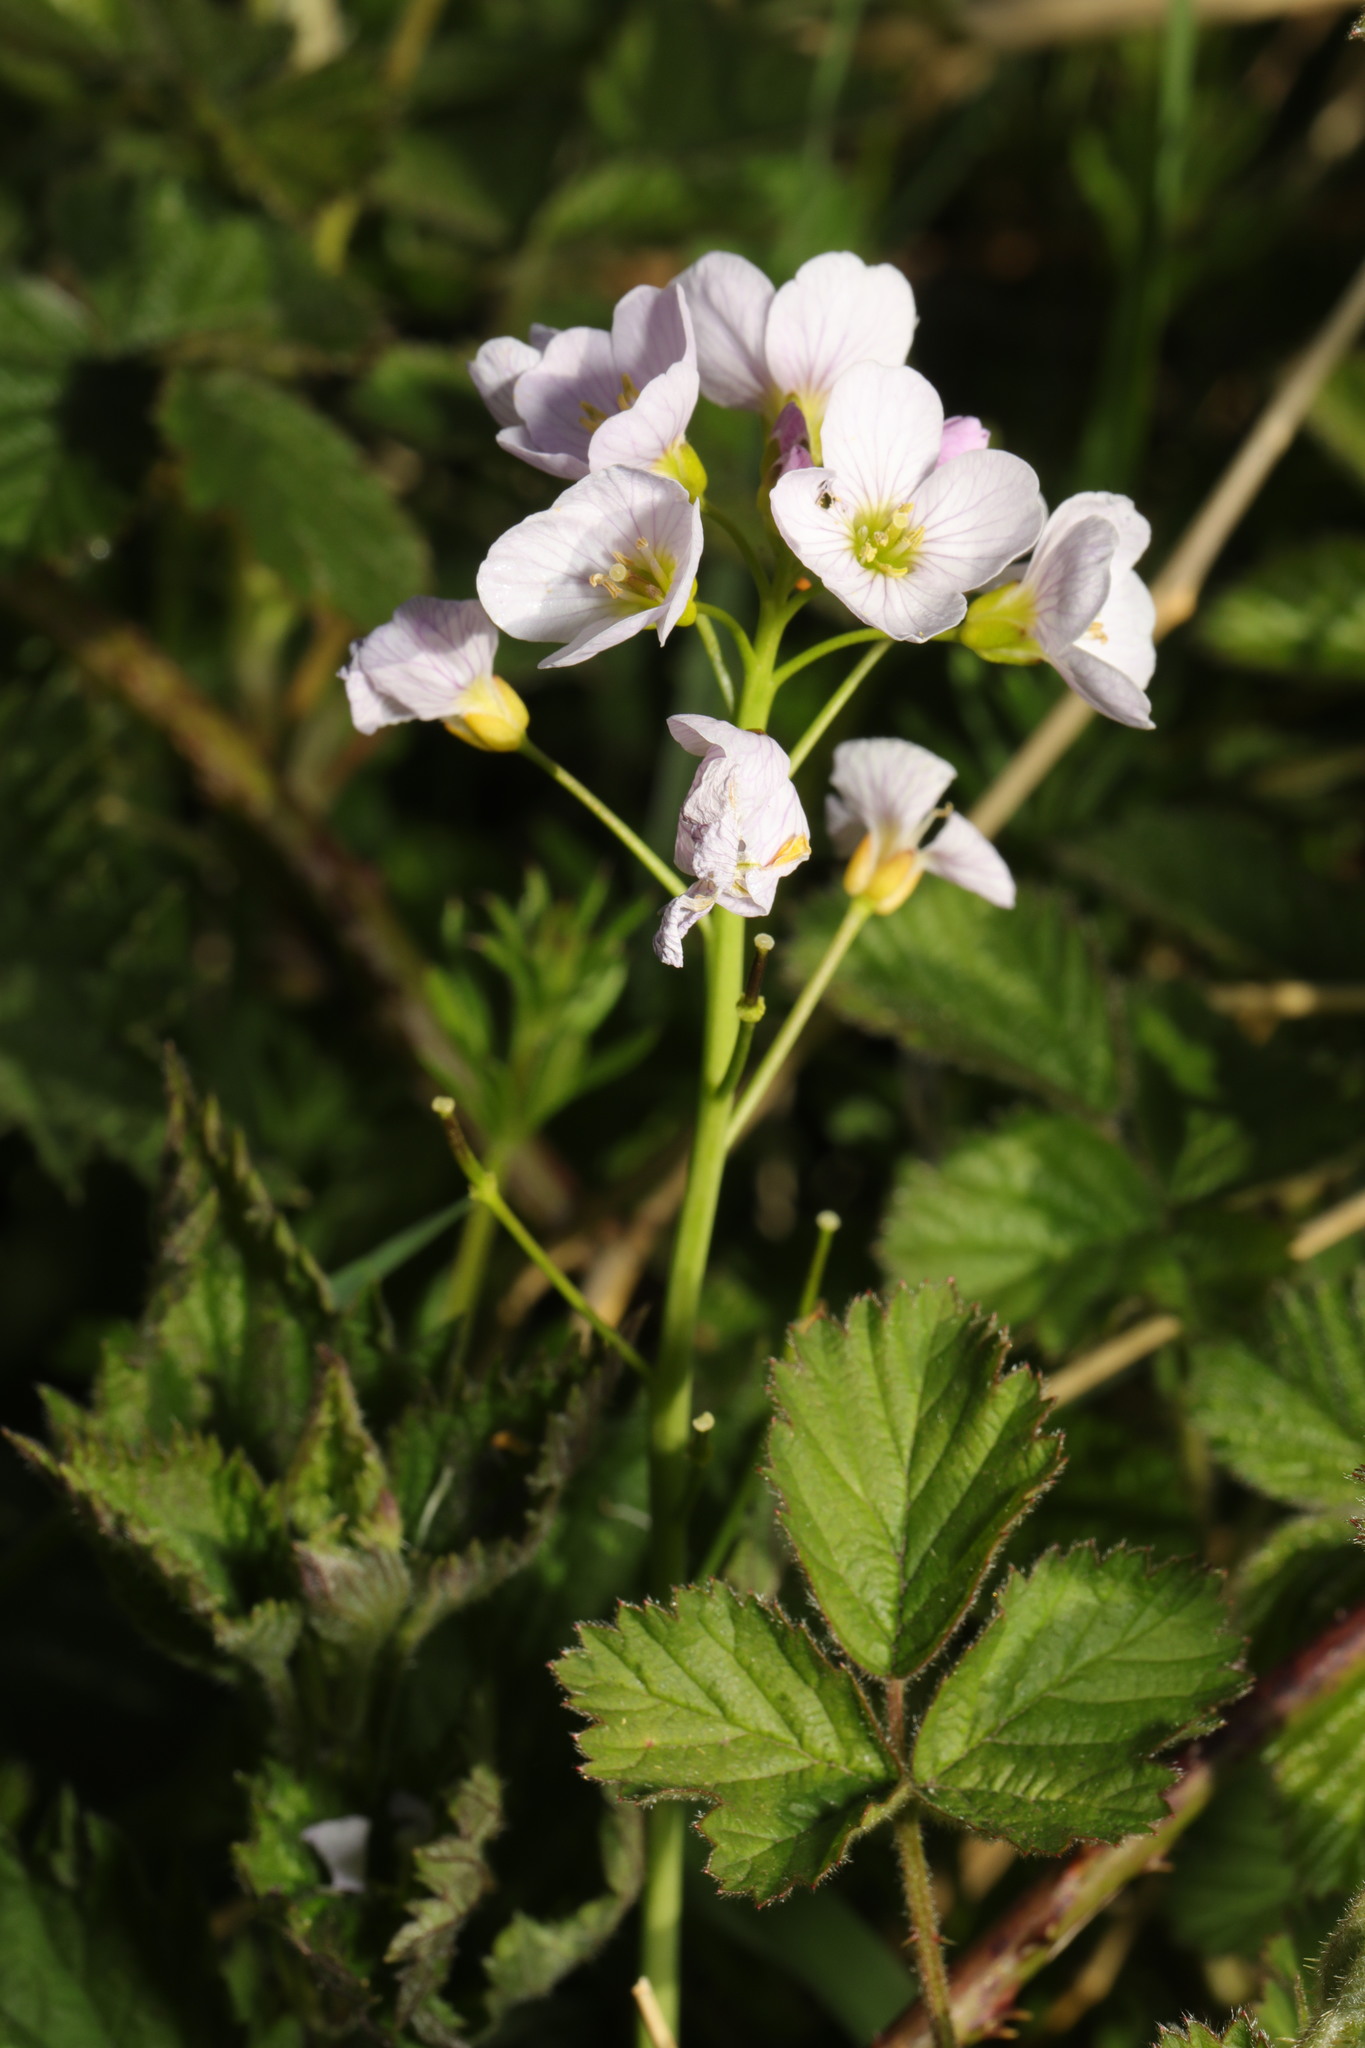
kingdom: Plantae
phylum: Tracheophyta
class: Magnoliopsida
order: Brassicales
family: Brassicaceae
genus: Cardamine
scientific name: Cardamine pratensis
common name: Cuckoo flower
